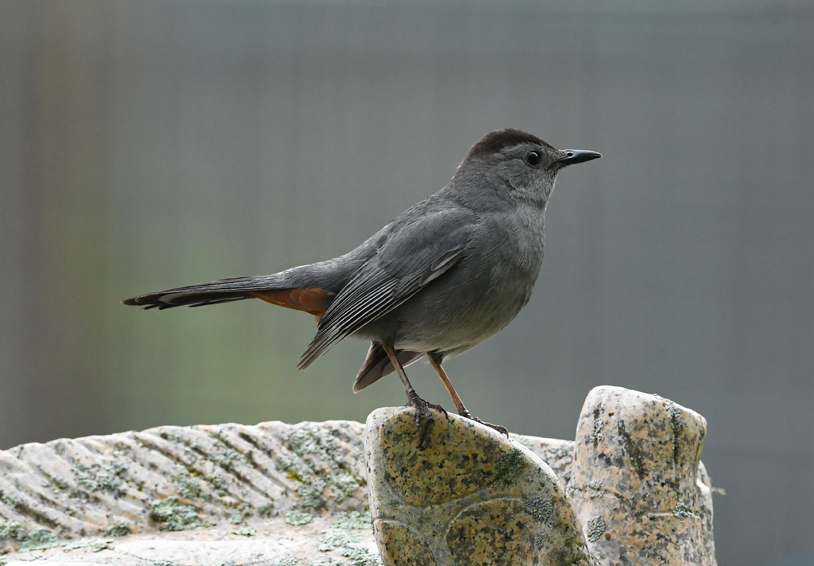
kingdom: Animalia
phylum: Chordata
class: Aves
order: Passeriformes
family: Mimidae
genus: Dumetella
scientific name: Dumetella carolinensis
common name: Gray catbird
